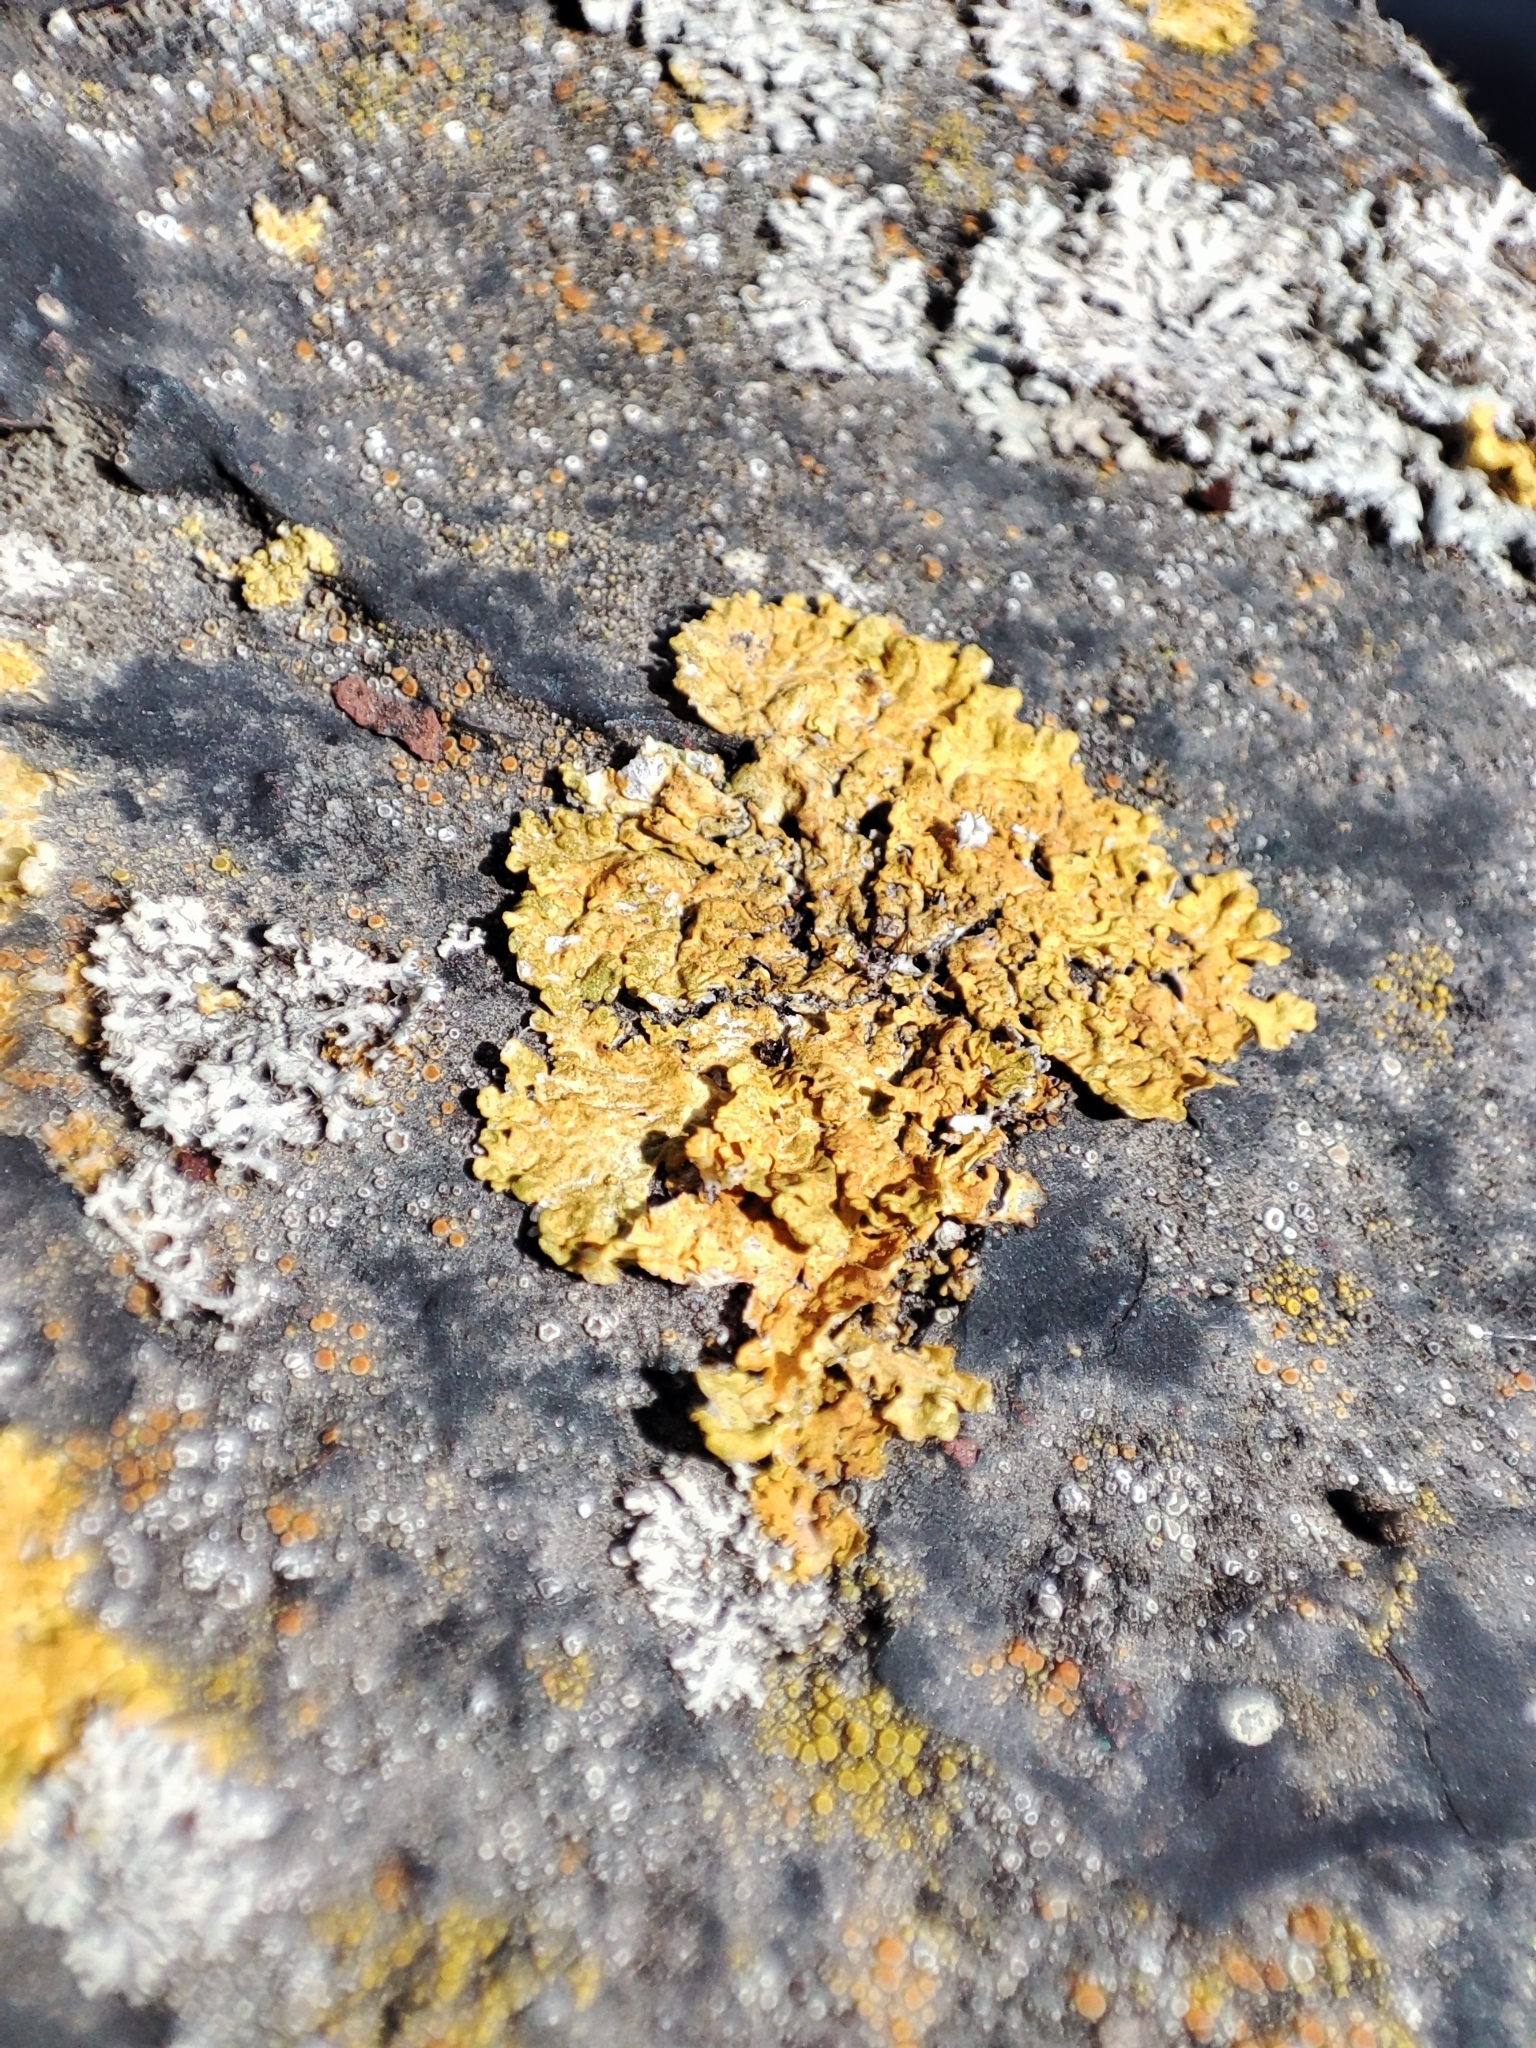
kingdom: Fungi
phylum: Ascomycota
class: Lecanoromycetes
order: Teloschistales
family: Teloschistaceae
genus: Xanthoria
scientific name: Xanthoria parietina
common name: Common orange lichen
